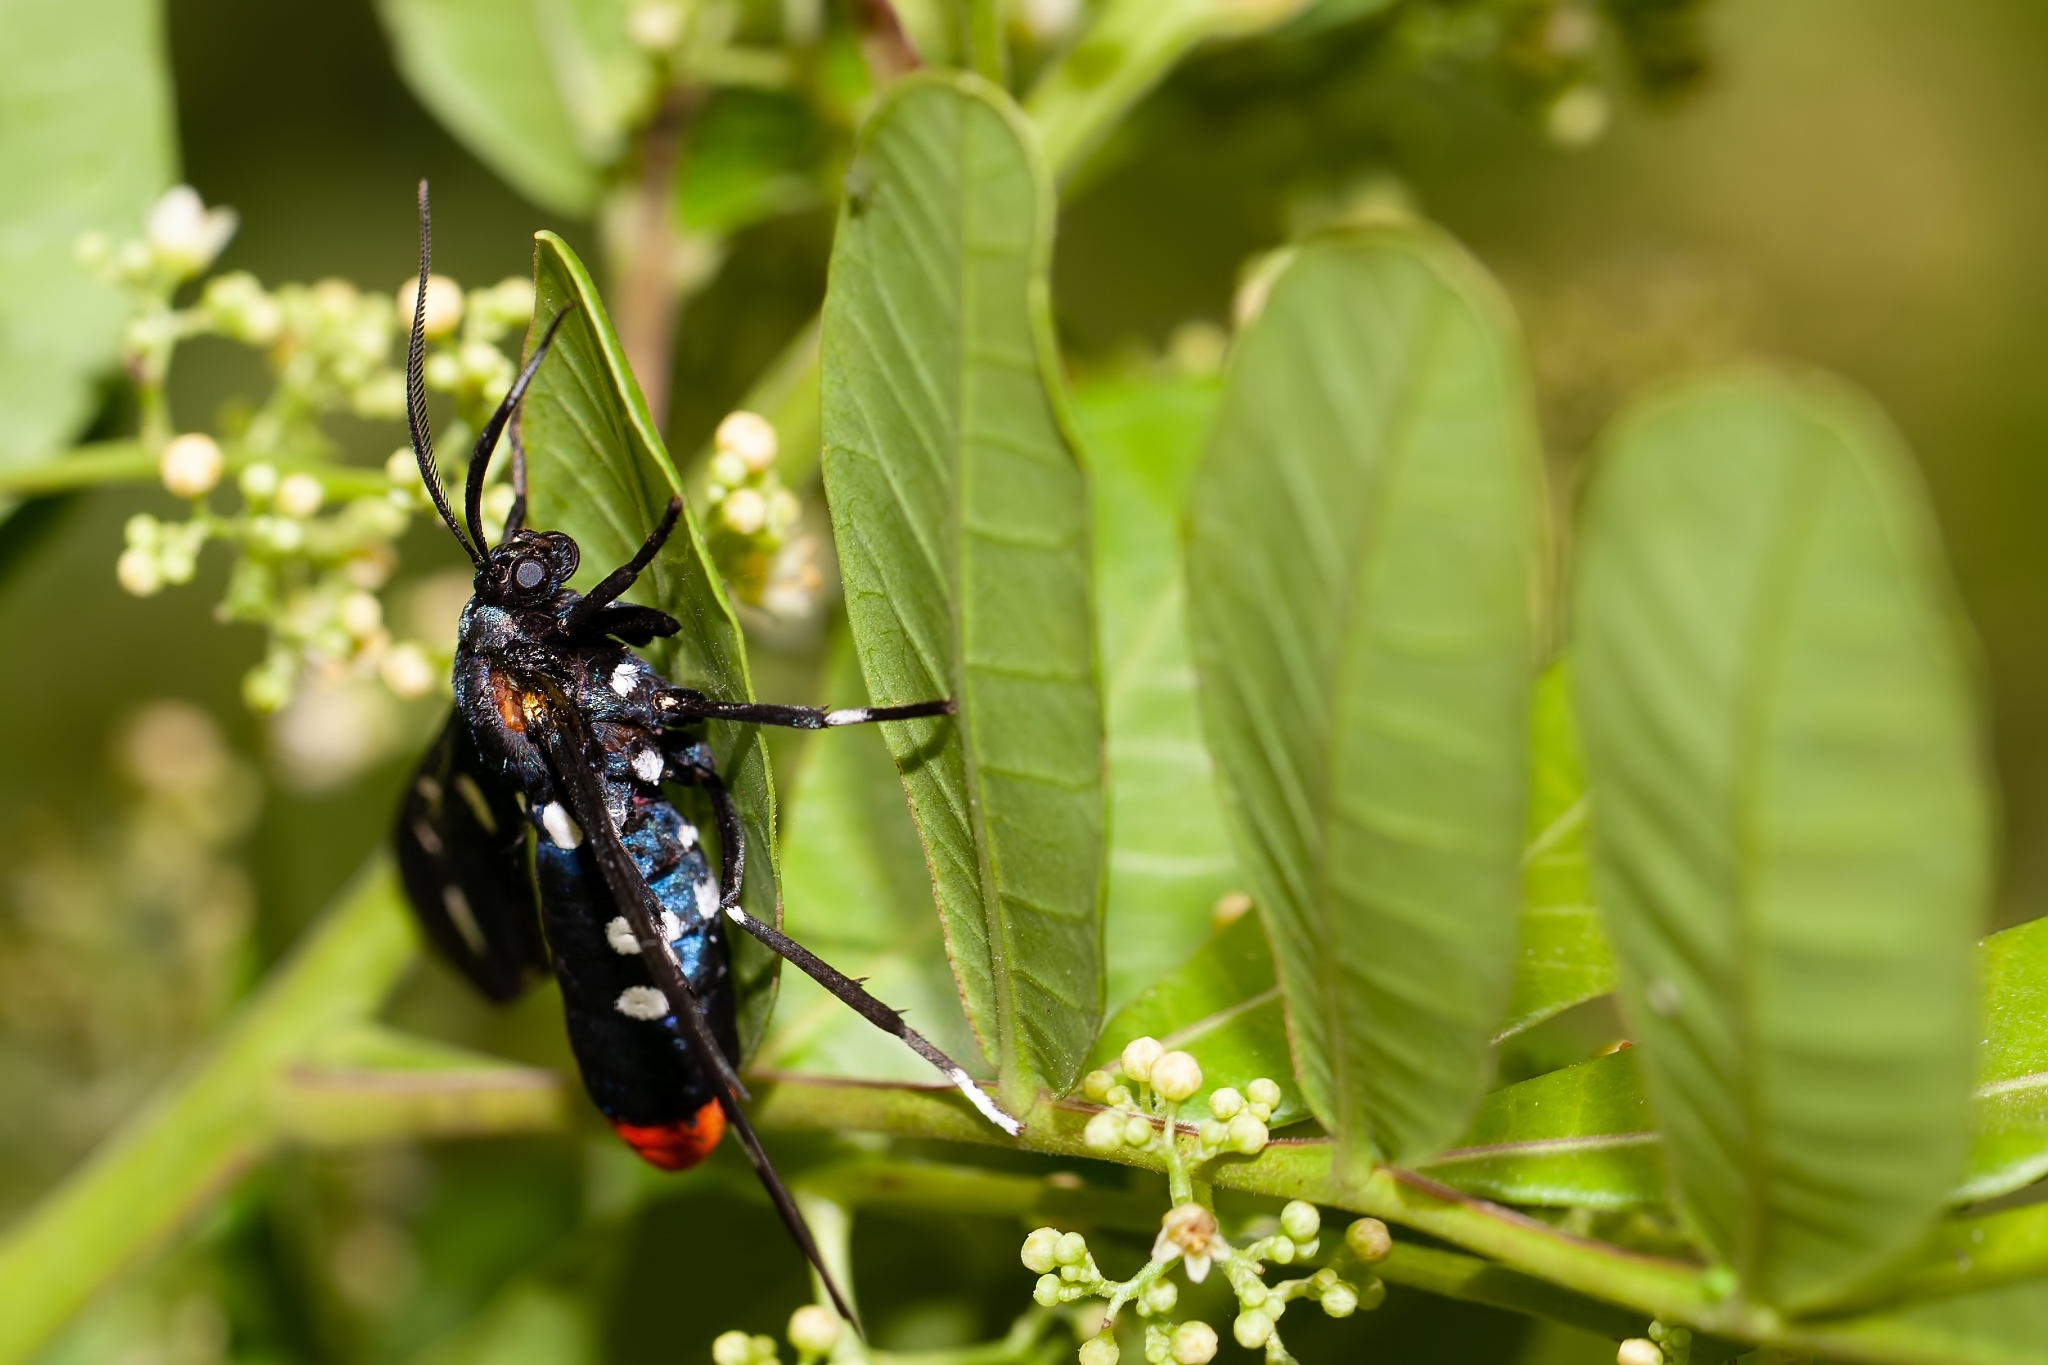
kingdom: Animalia
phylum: Arthropoda
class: Insecta
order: Lepidoptera
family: Erebidae
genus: Syntomeida
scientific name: Syntomeida epilais
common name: Polka-dot wasp moth
